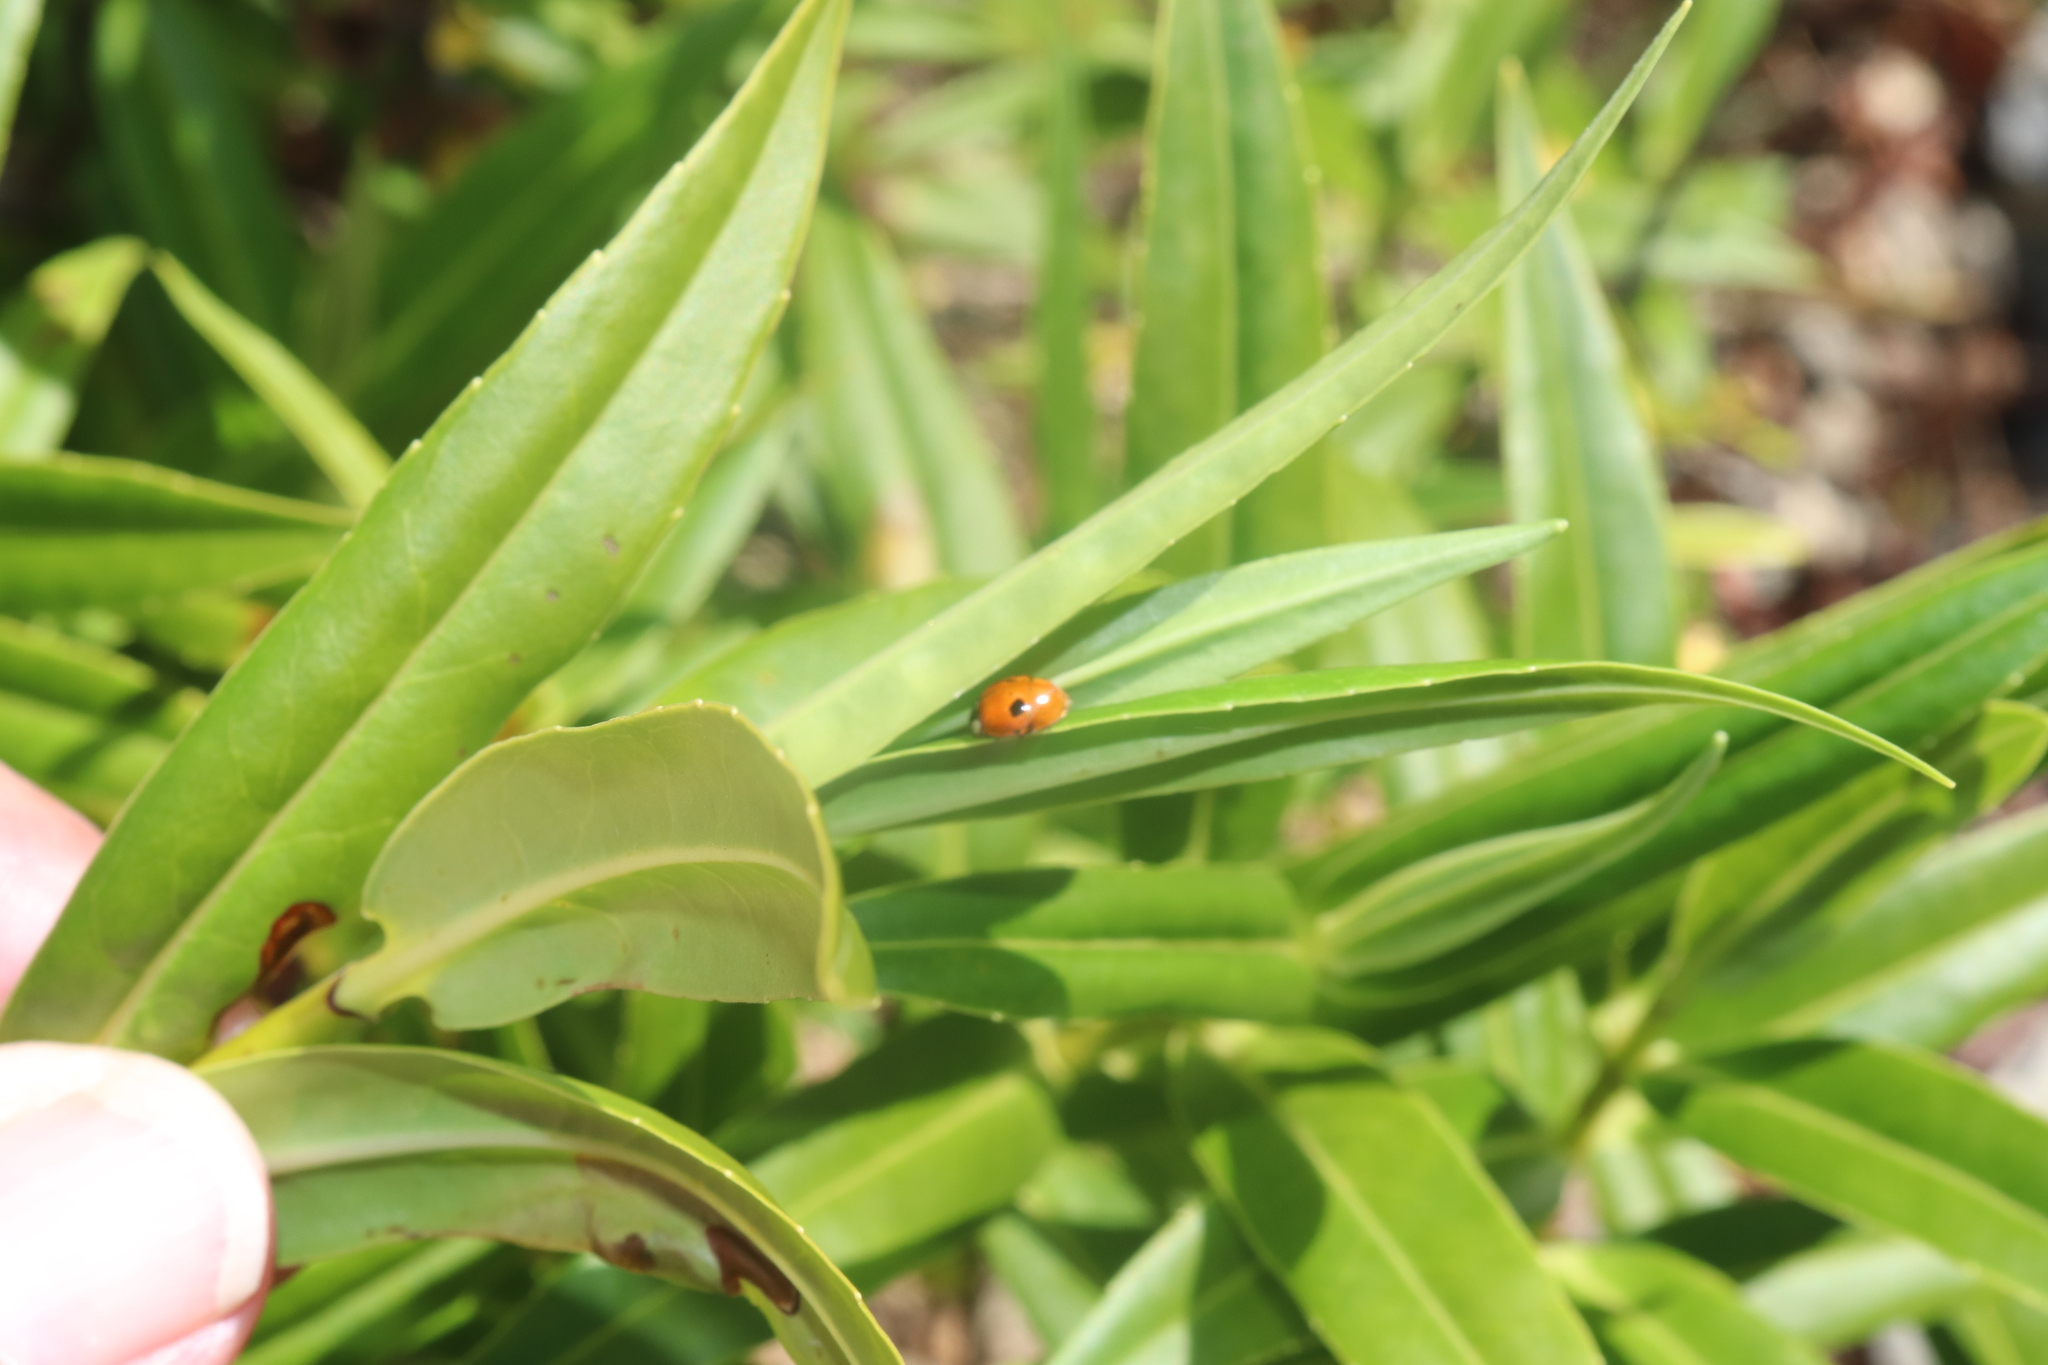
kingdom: Animalia
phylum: Arthropoda
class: Insecta
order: Coleoptera
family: Coccinellidae
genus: Adalia
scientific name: Adalia bipunctata
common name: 2-spot ladybird
